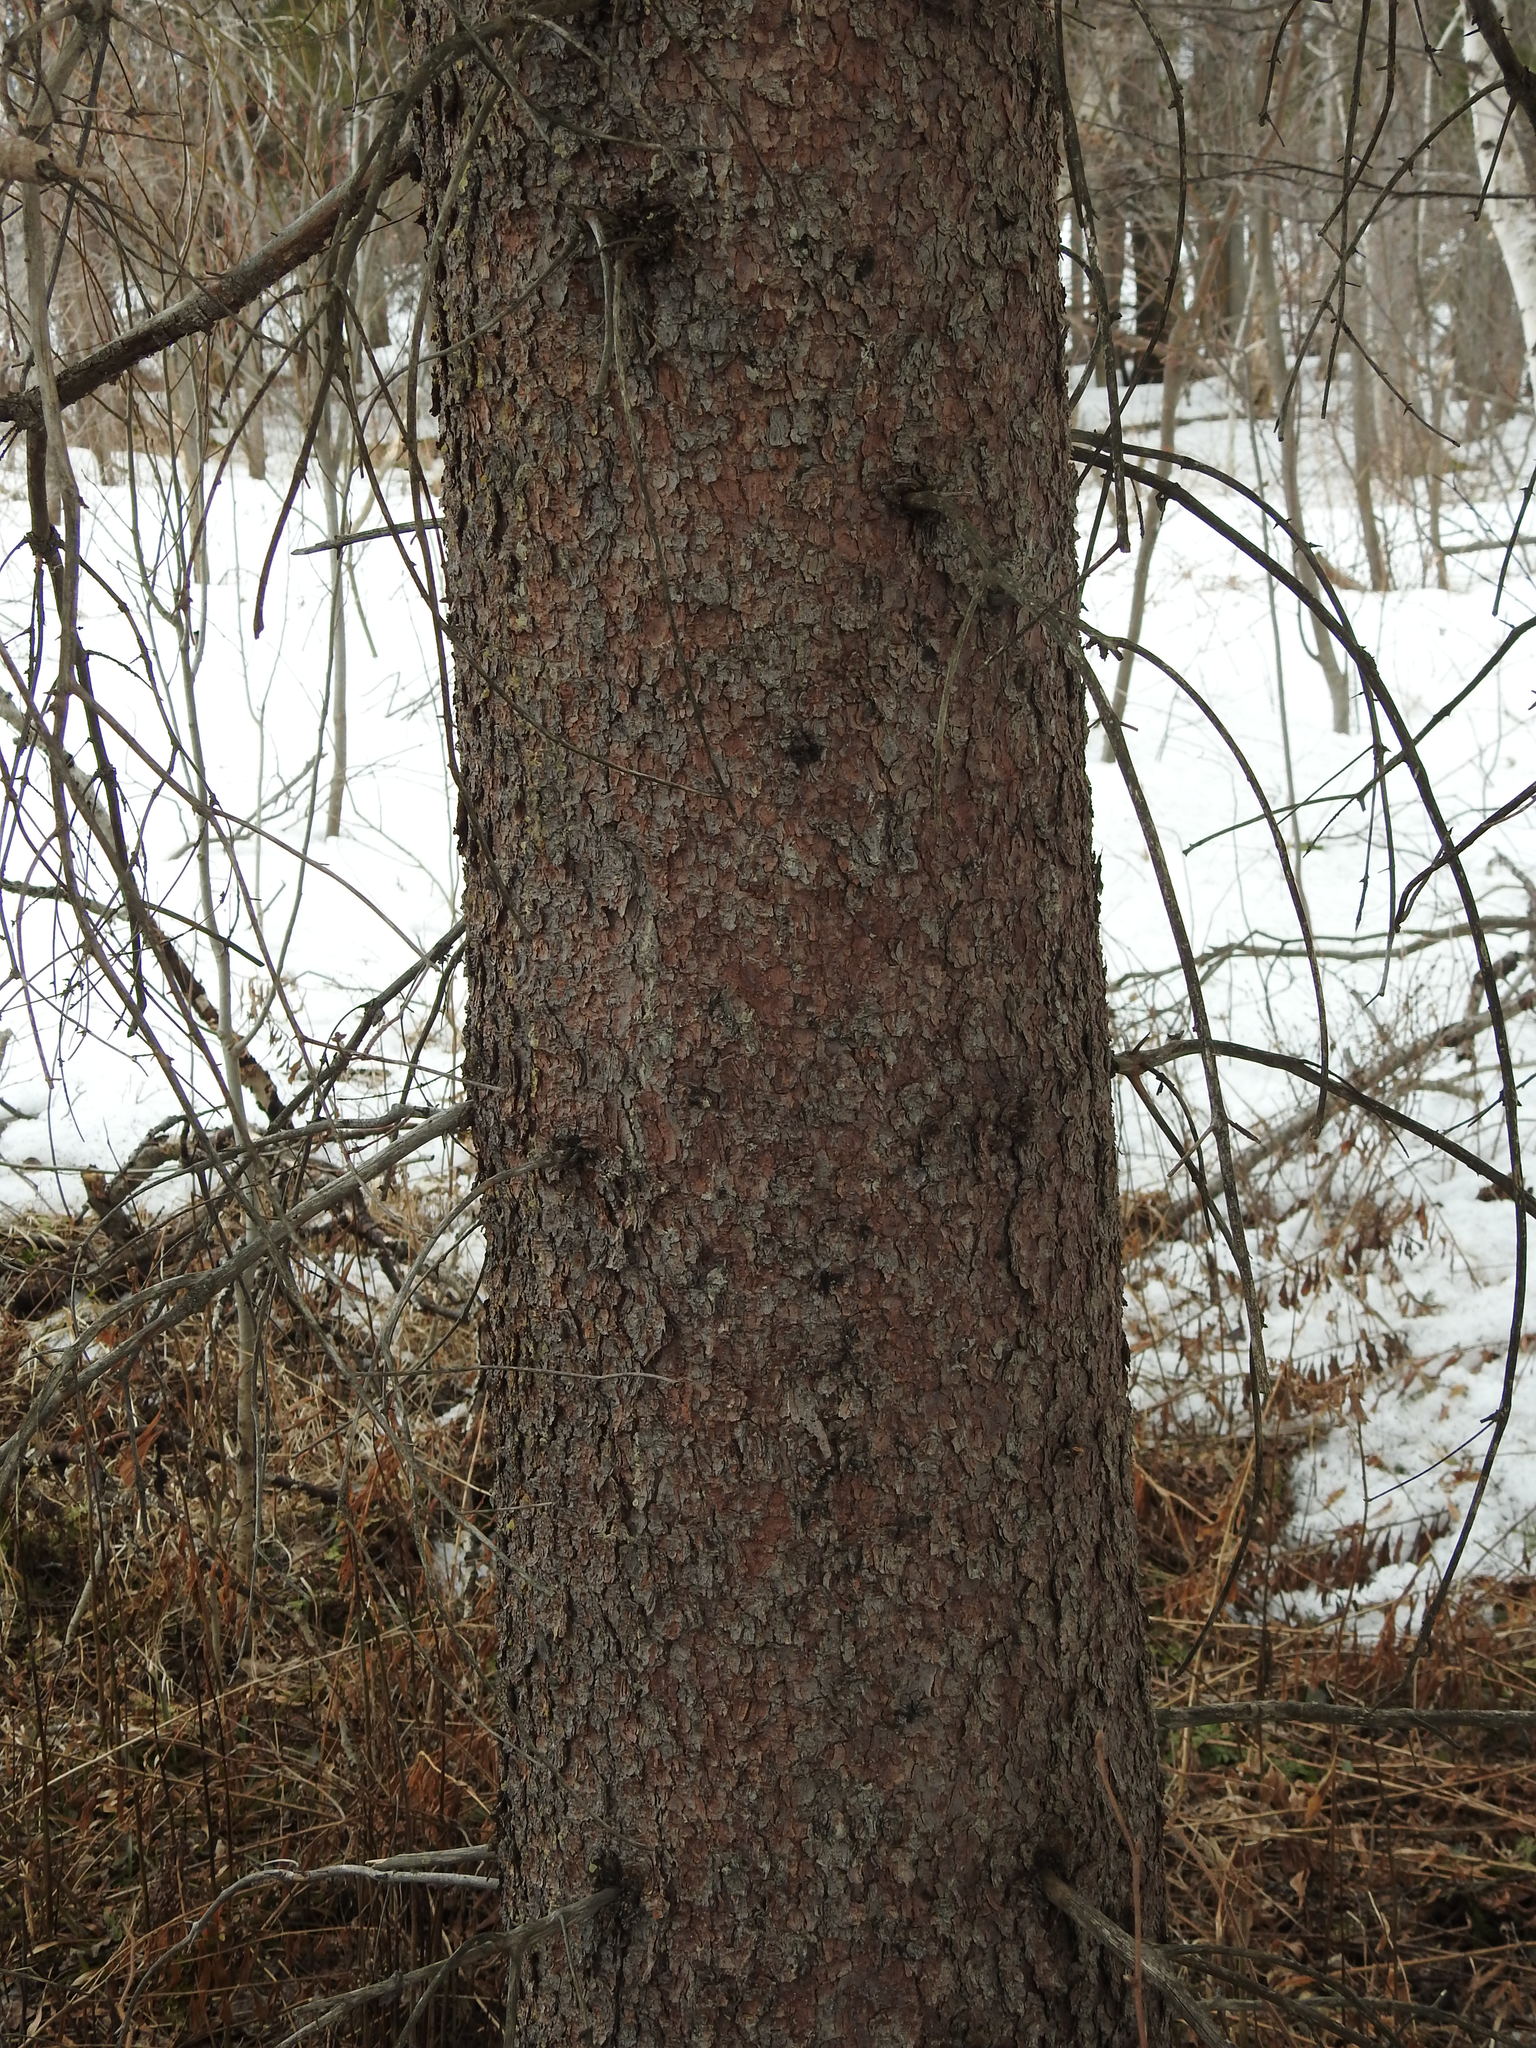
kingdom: Plantae
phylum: Tracheophyta
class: Pinopsida
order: Pinales
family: Pinaceae
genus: Picea
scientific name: Picea glauca
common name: White spruce
